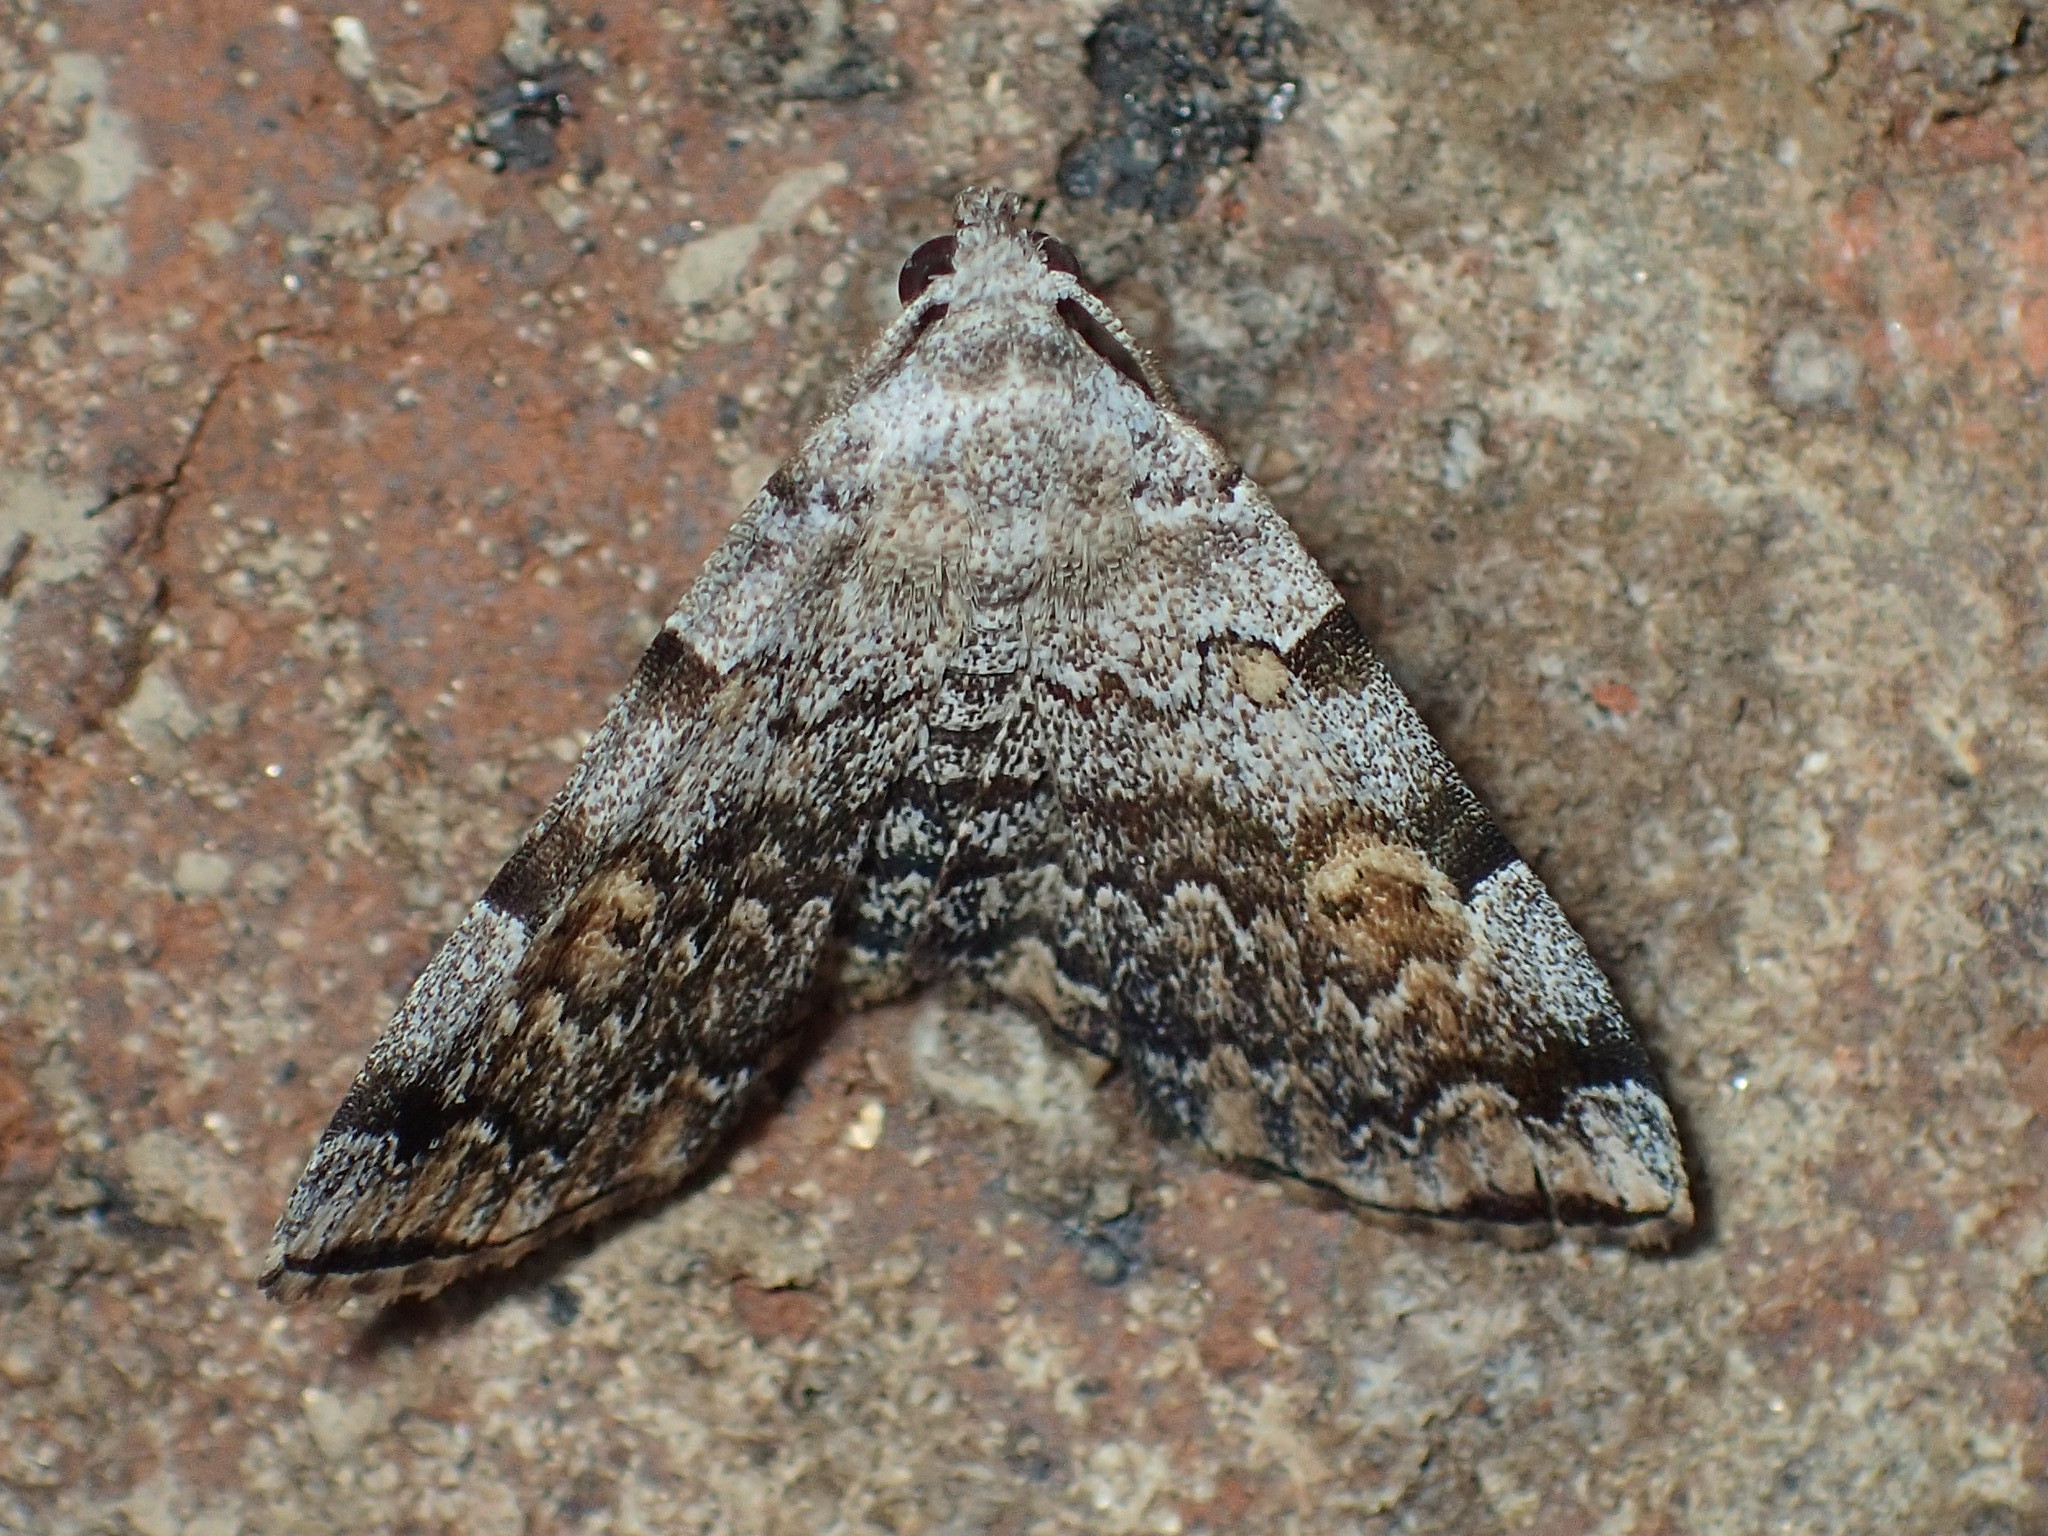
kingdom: Animalia
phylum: Arthropoda
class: Insecta
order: Lepidoptera
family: Erebidae
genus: Idia
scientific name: Idia americalis
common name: American idia moth
